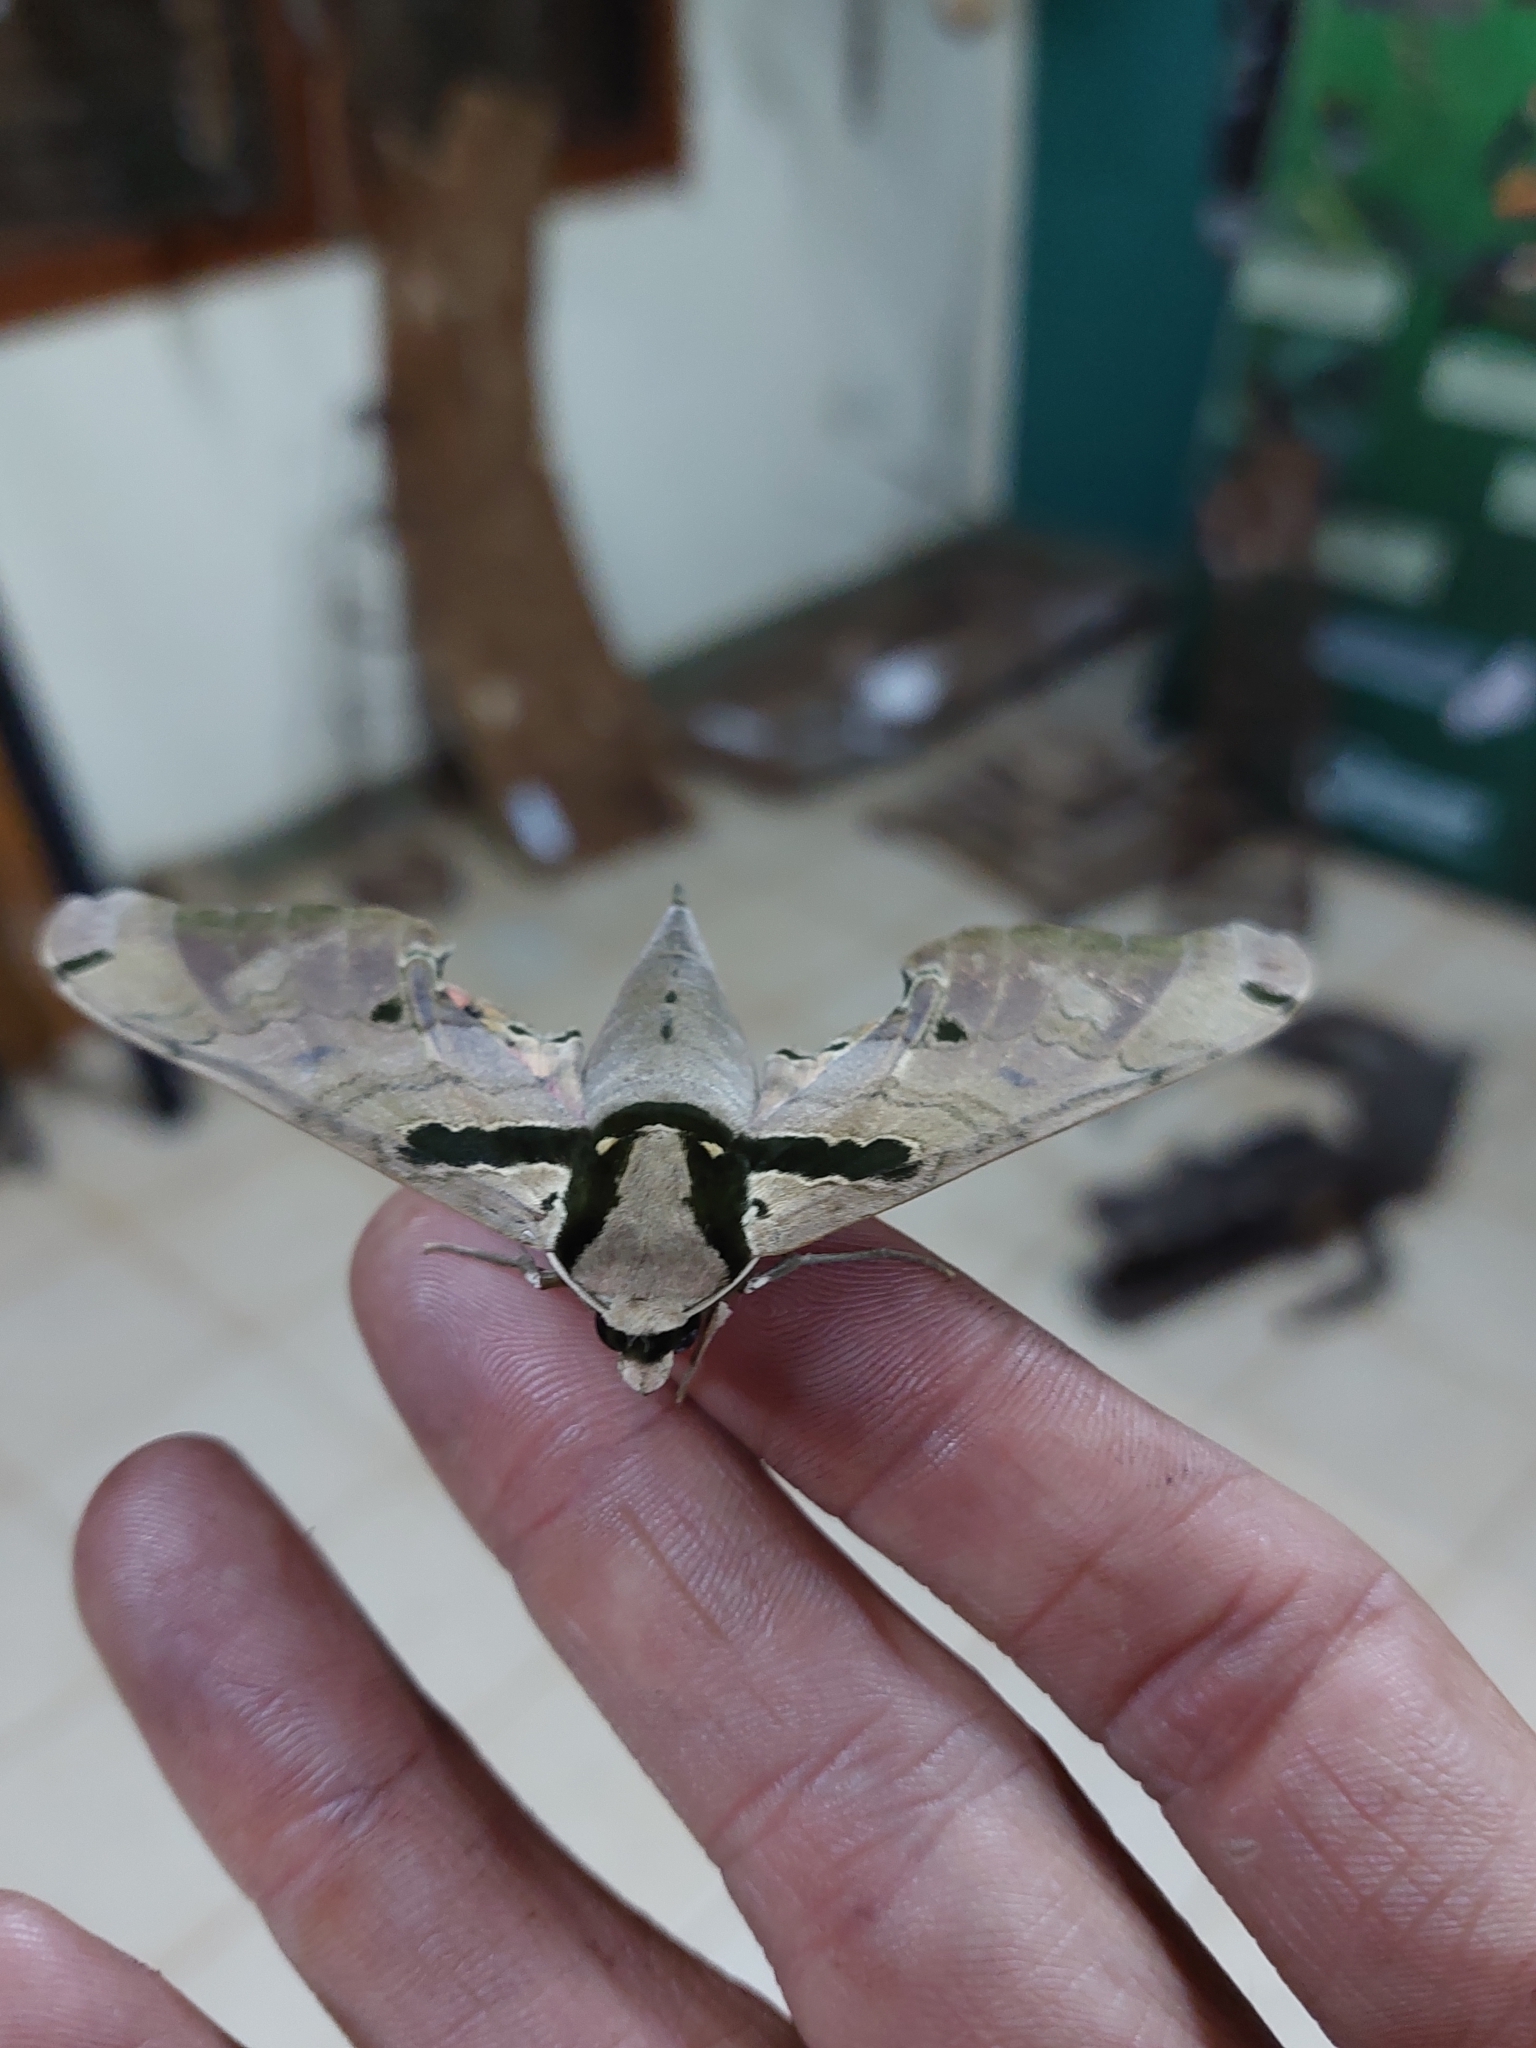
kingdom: Animalia
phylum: Arthropoda
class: Insecta
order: Lepidoptera
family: Sphingidae
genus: Adhemarius
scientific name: Adhemarius daphne
